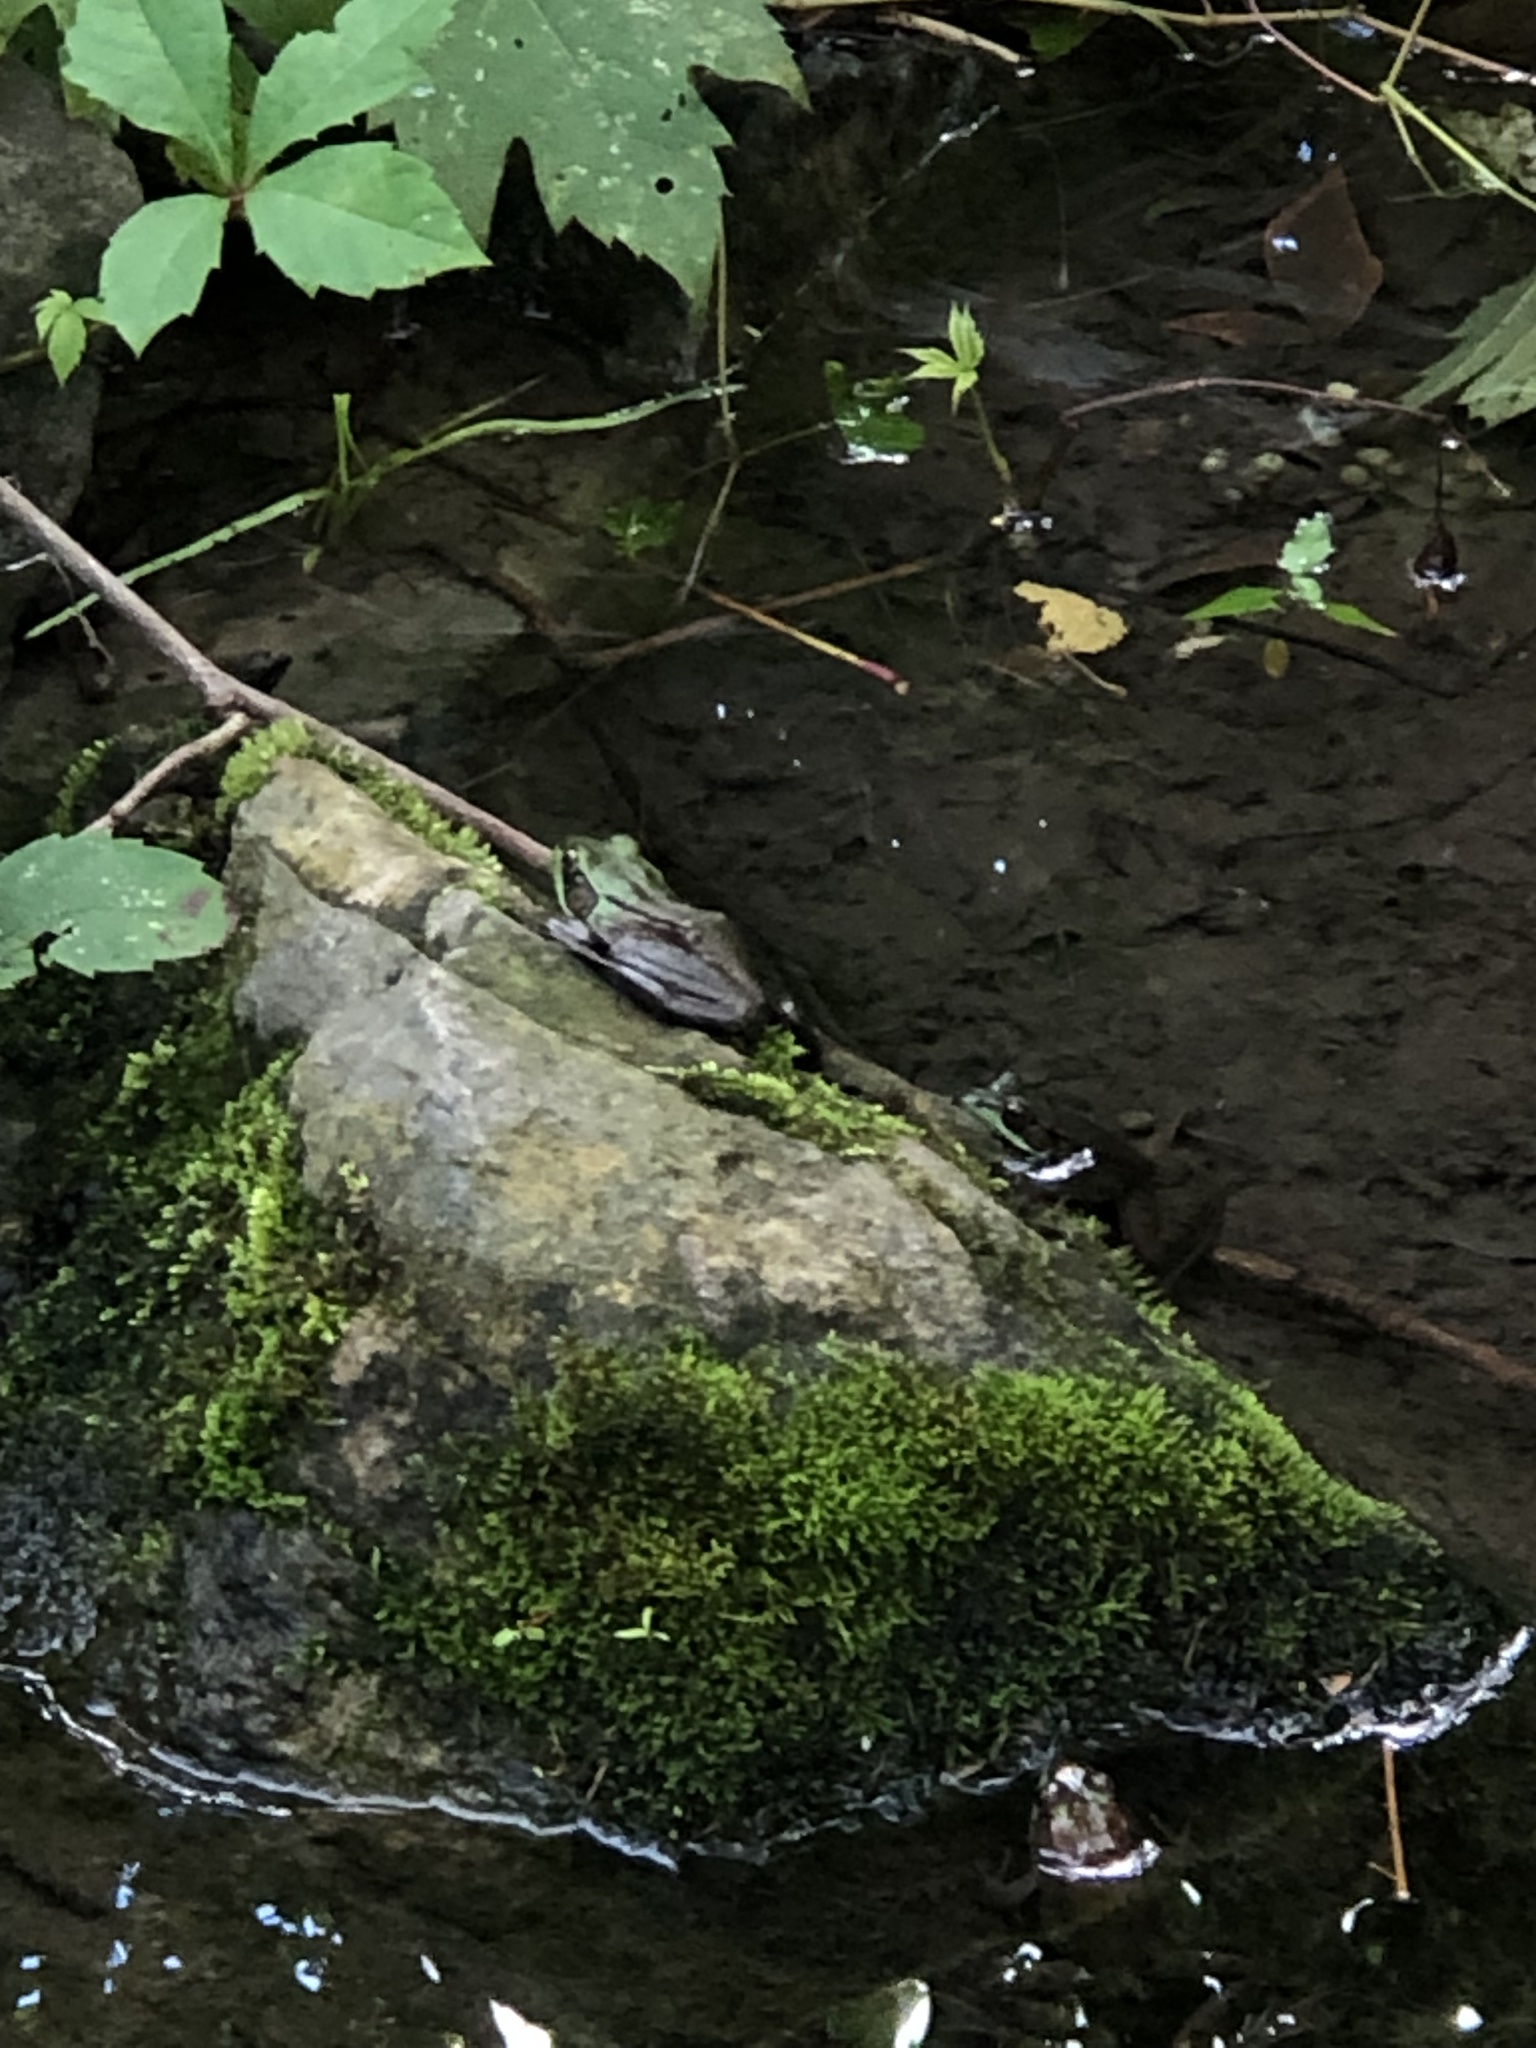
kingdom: Animalia
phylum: Chordata
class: Amphibia
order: Anura
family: Ranidae
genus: Lithobates
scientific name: Lithobates clamitans
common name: Green frog
